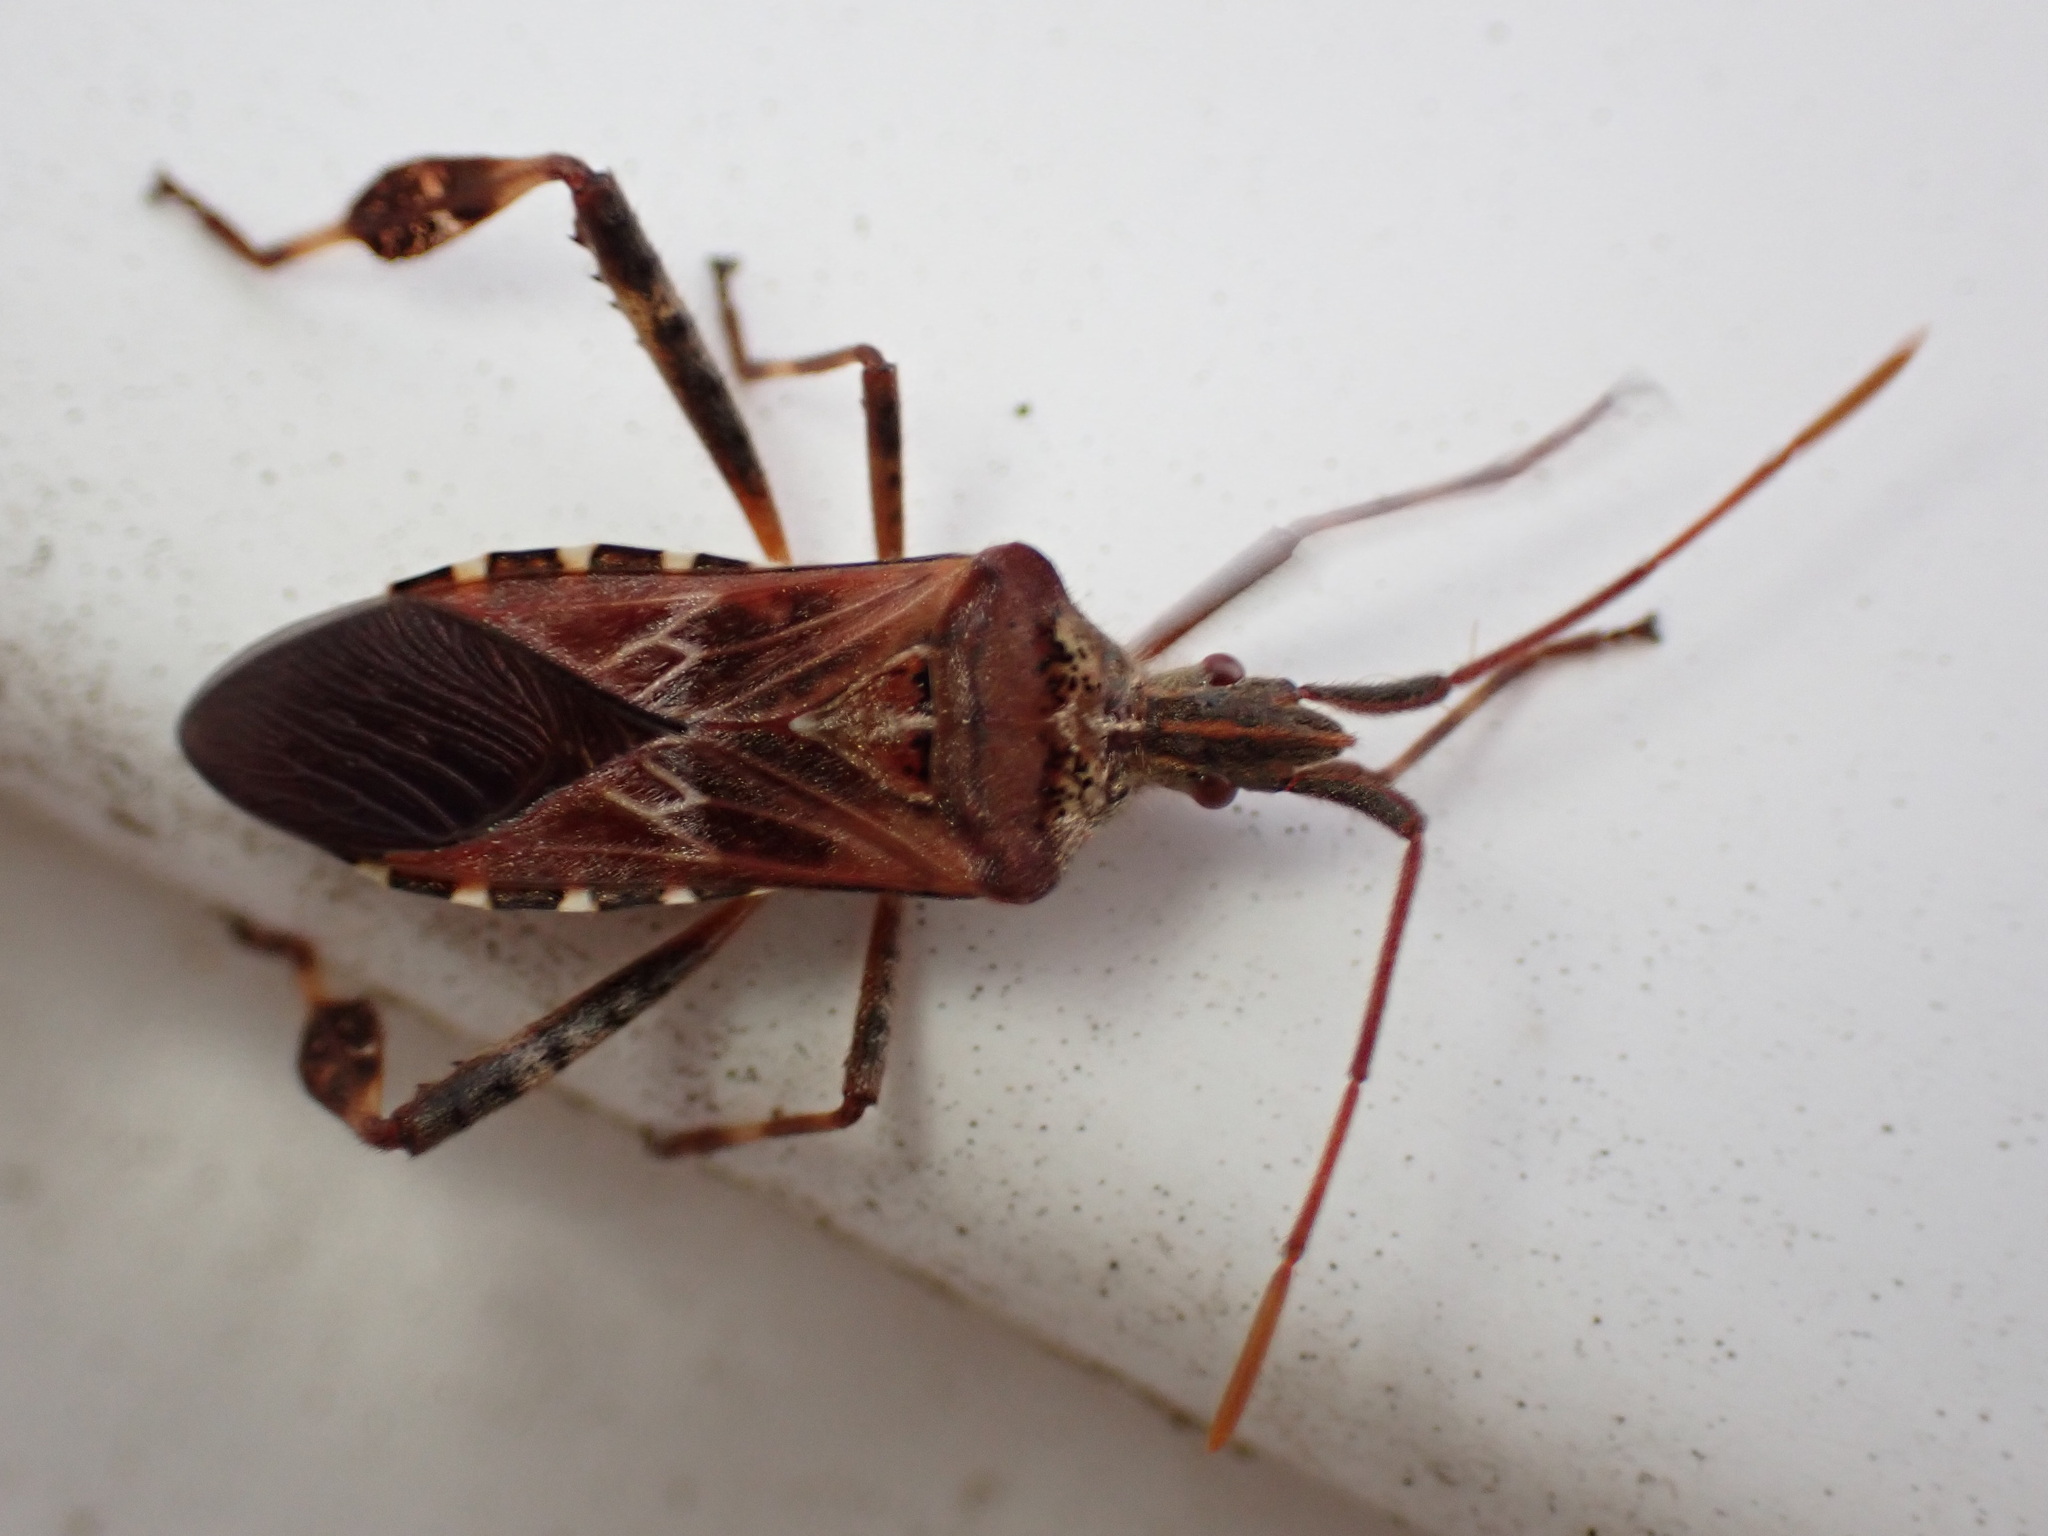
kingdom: Animalia
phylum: Arthropoda
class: Insecta
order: Hemiptera
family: Coreidae
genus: Leptoglossus
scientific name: Leptoglossus occidentalis
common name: Western conifer-seed bug
